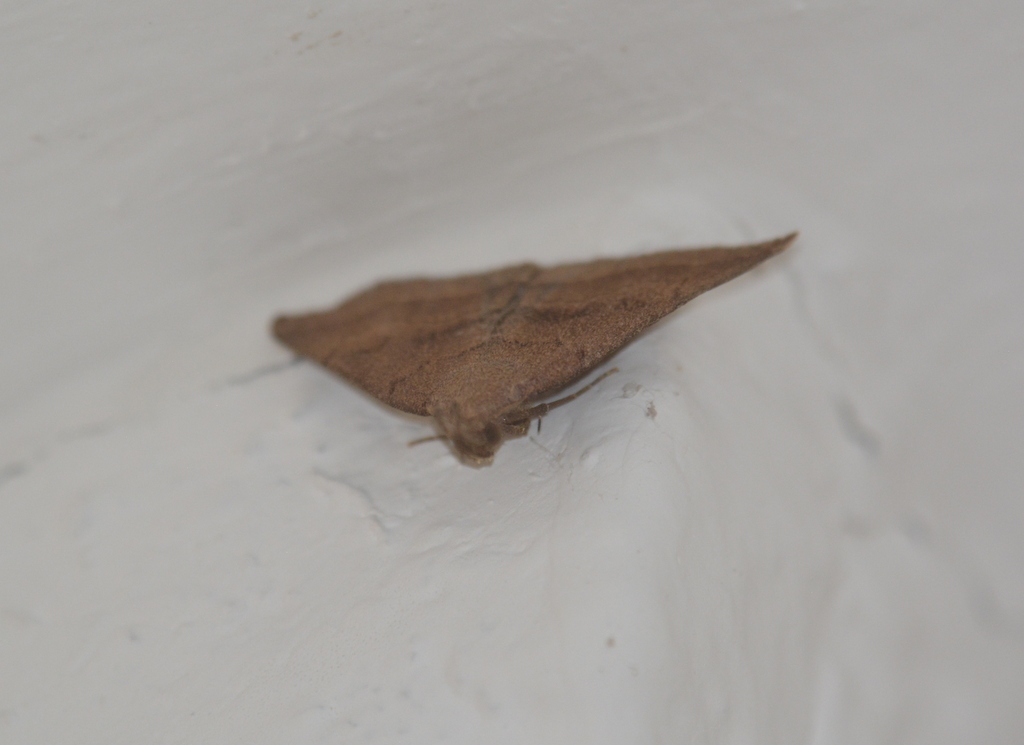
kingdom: Animalia
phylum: Arthropoda
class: Insecta
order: Lepidoptera
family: Erebidae
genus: Pechipogo
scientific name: Pechipogo plumigeralis
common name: Plumed fan-foot
